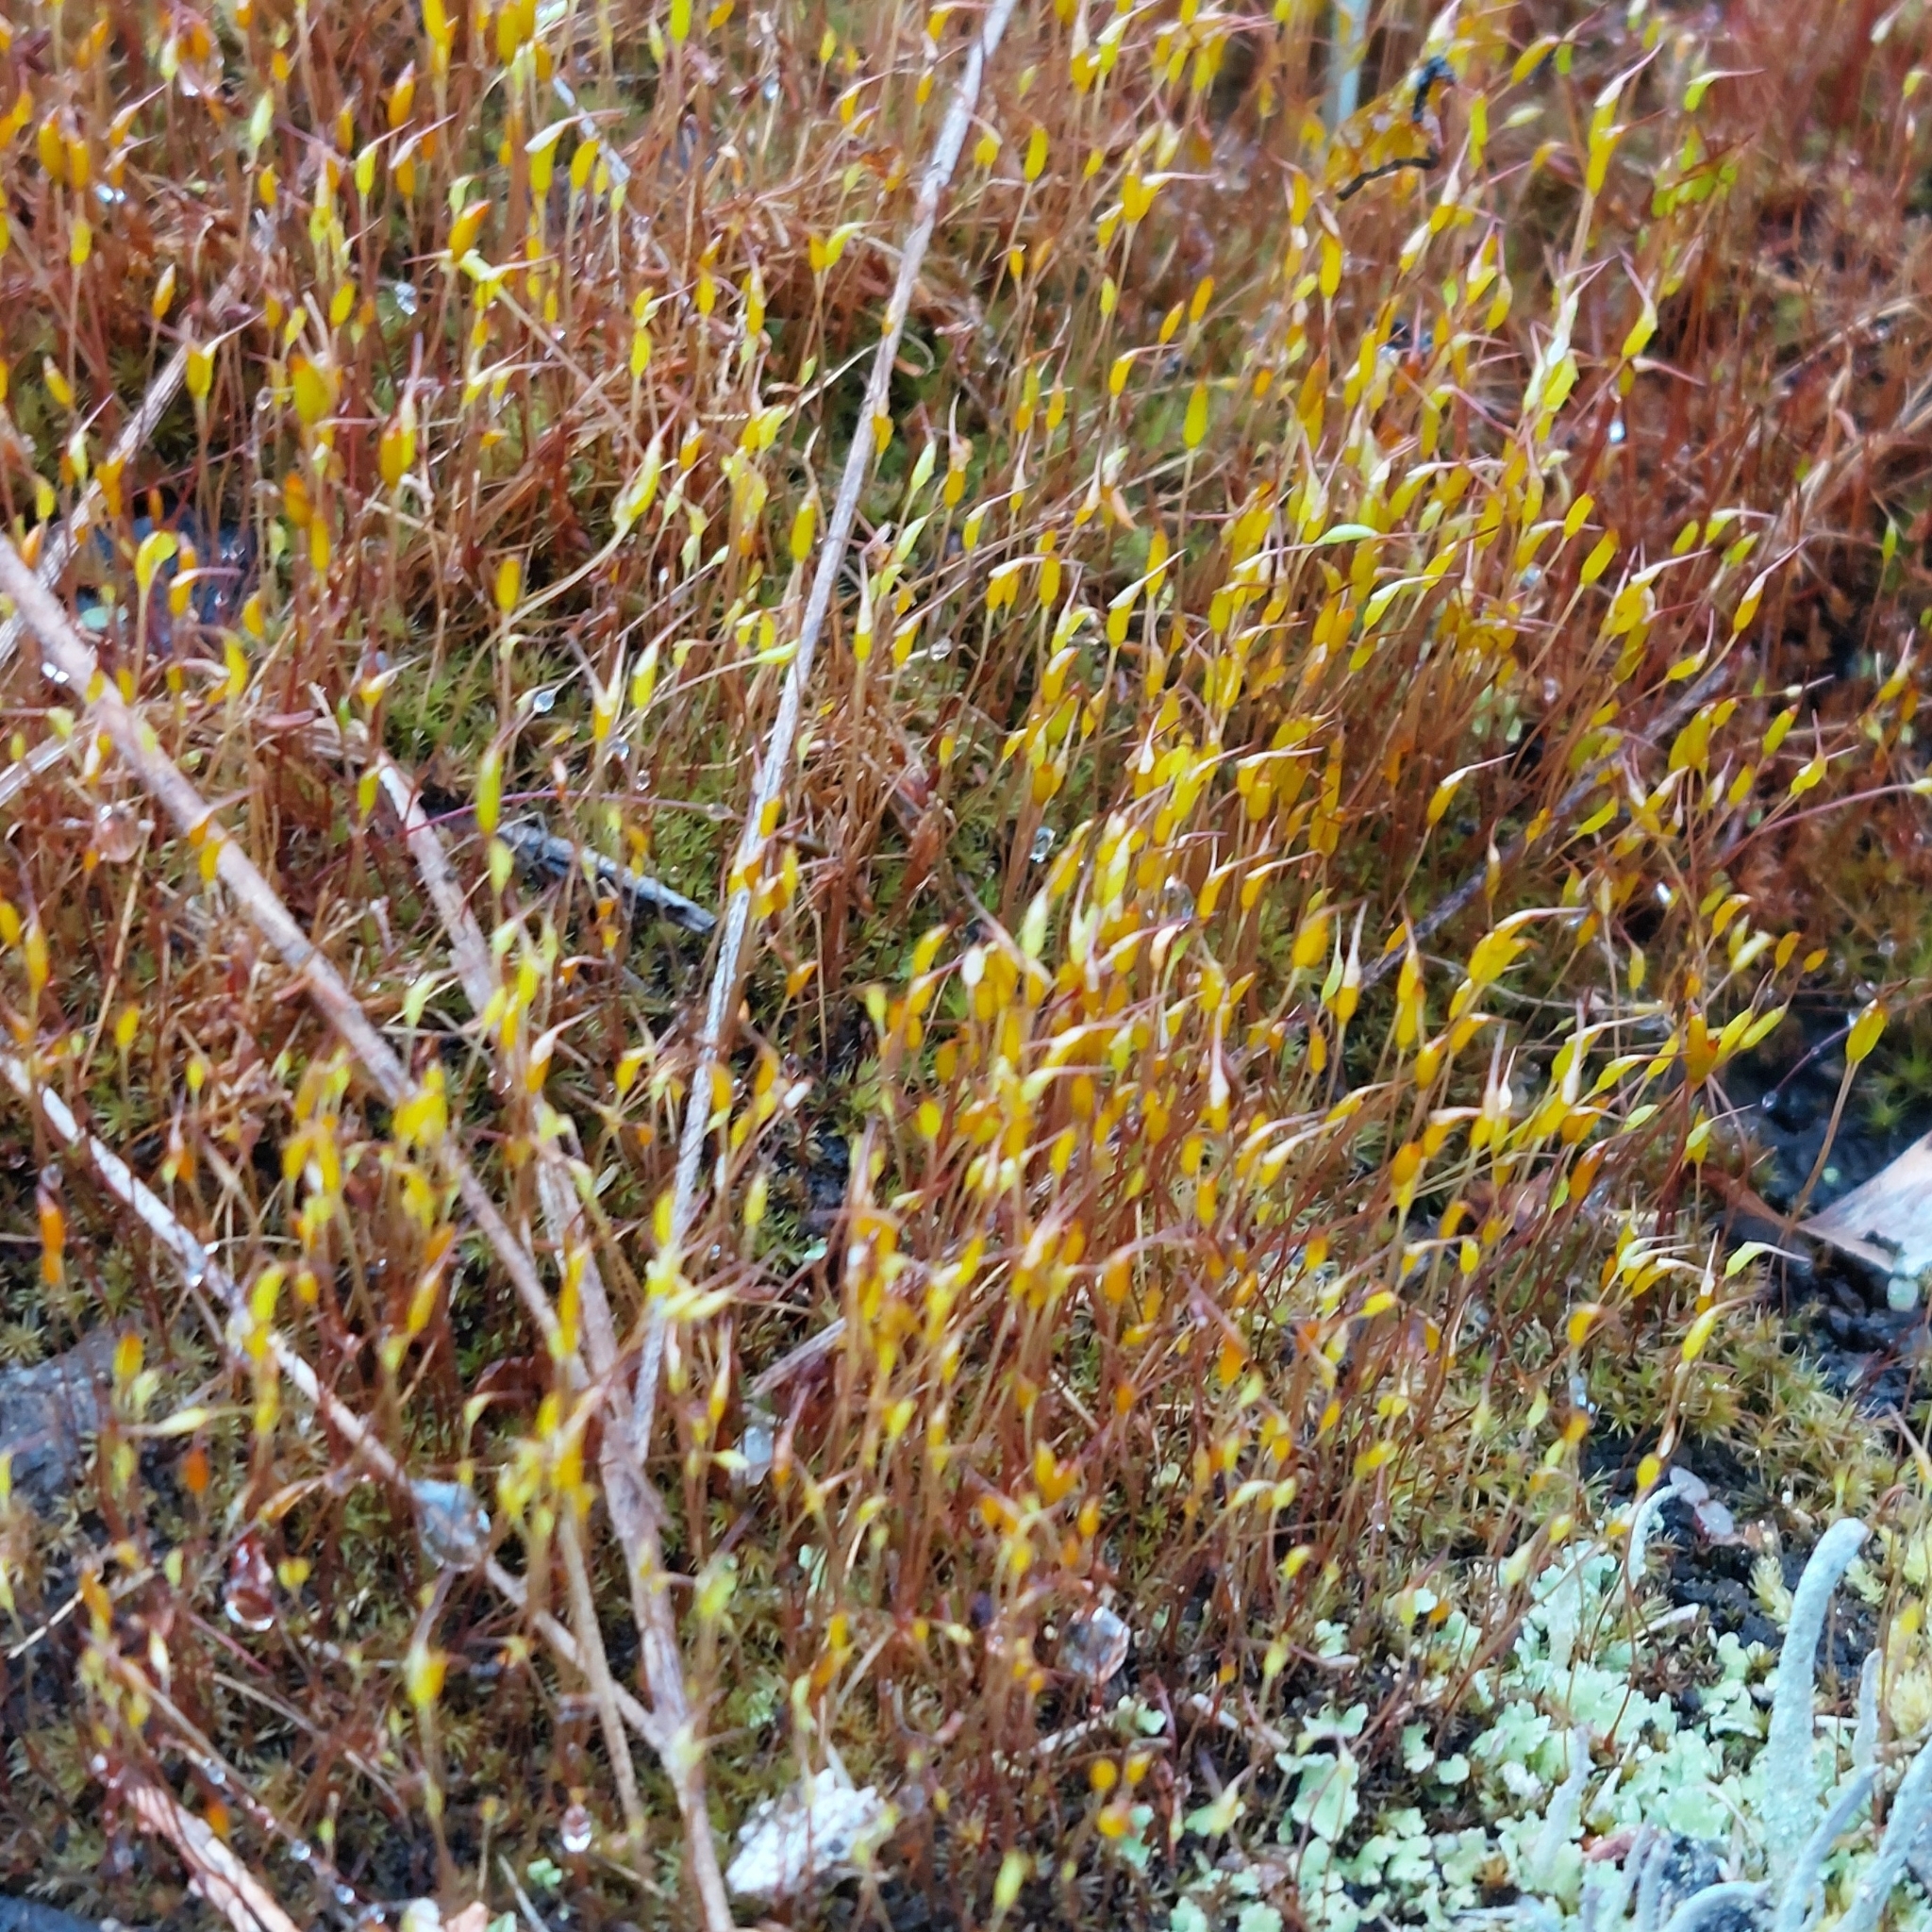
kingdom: Plantae
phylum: Bryophyta
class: Bryopsida
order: Dicranales
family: Ditrichaceae
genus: Ceratodon
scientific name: Ceratodon purpureus
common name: Redshank
